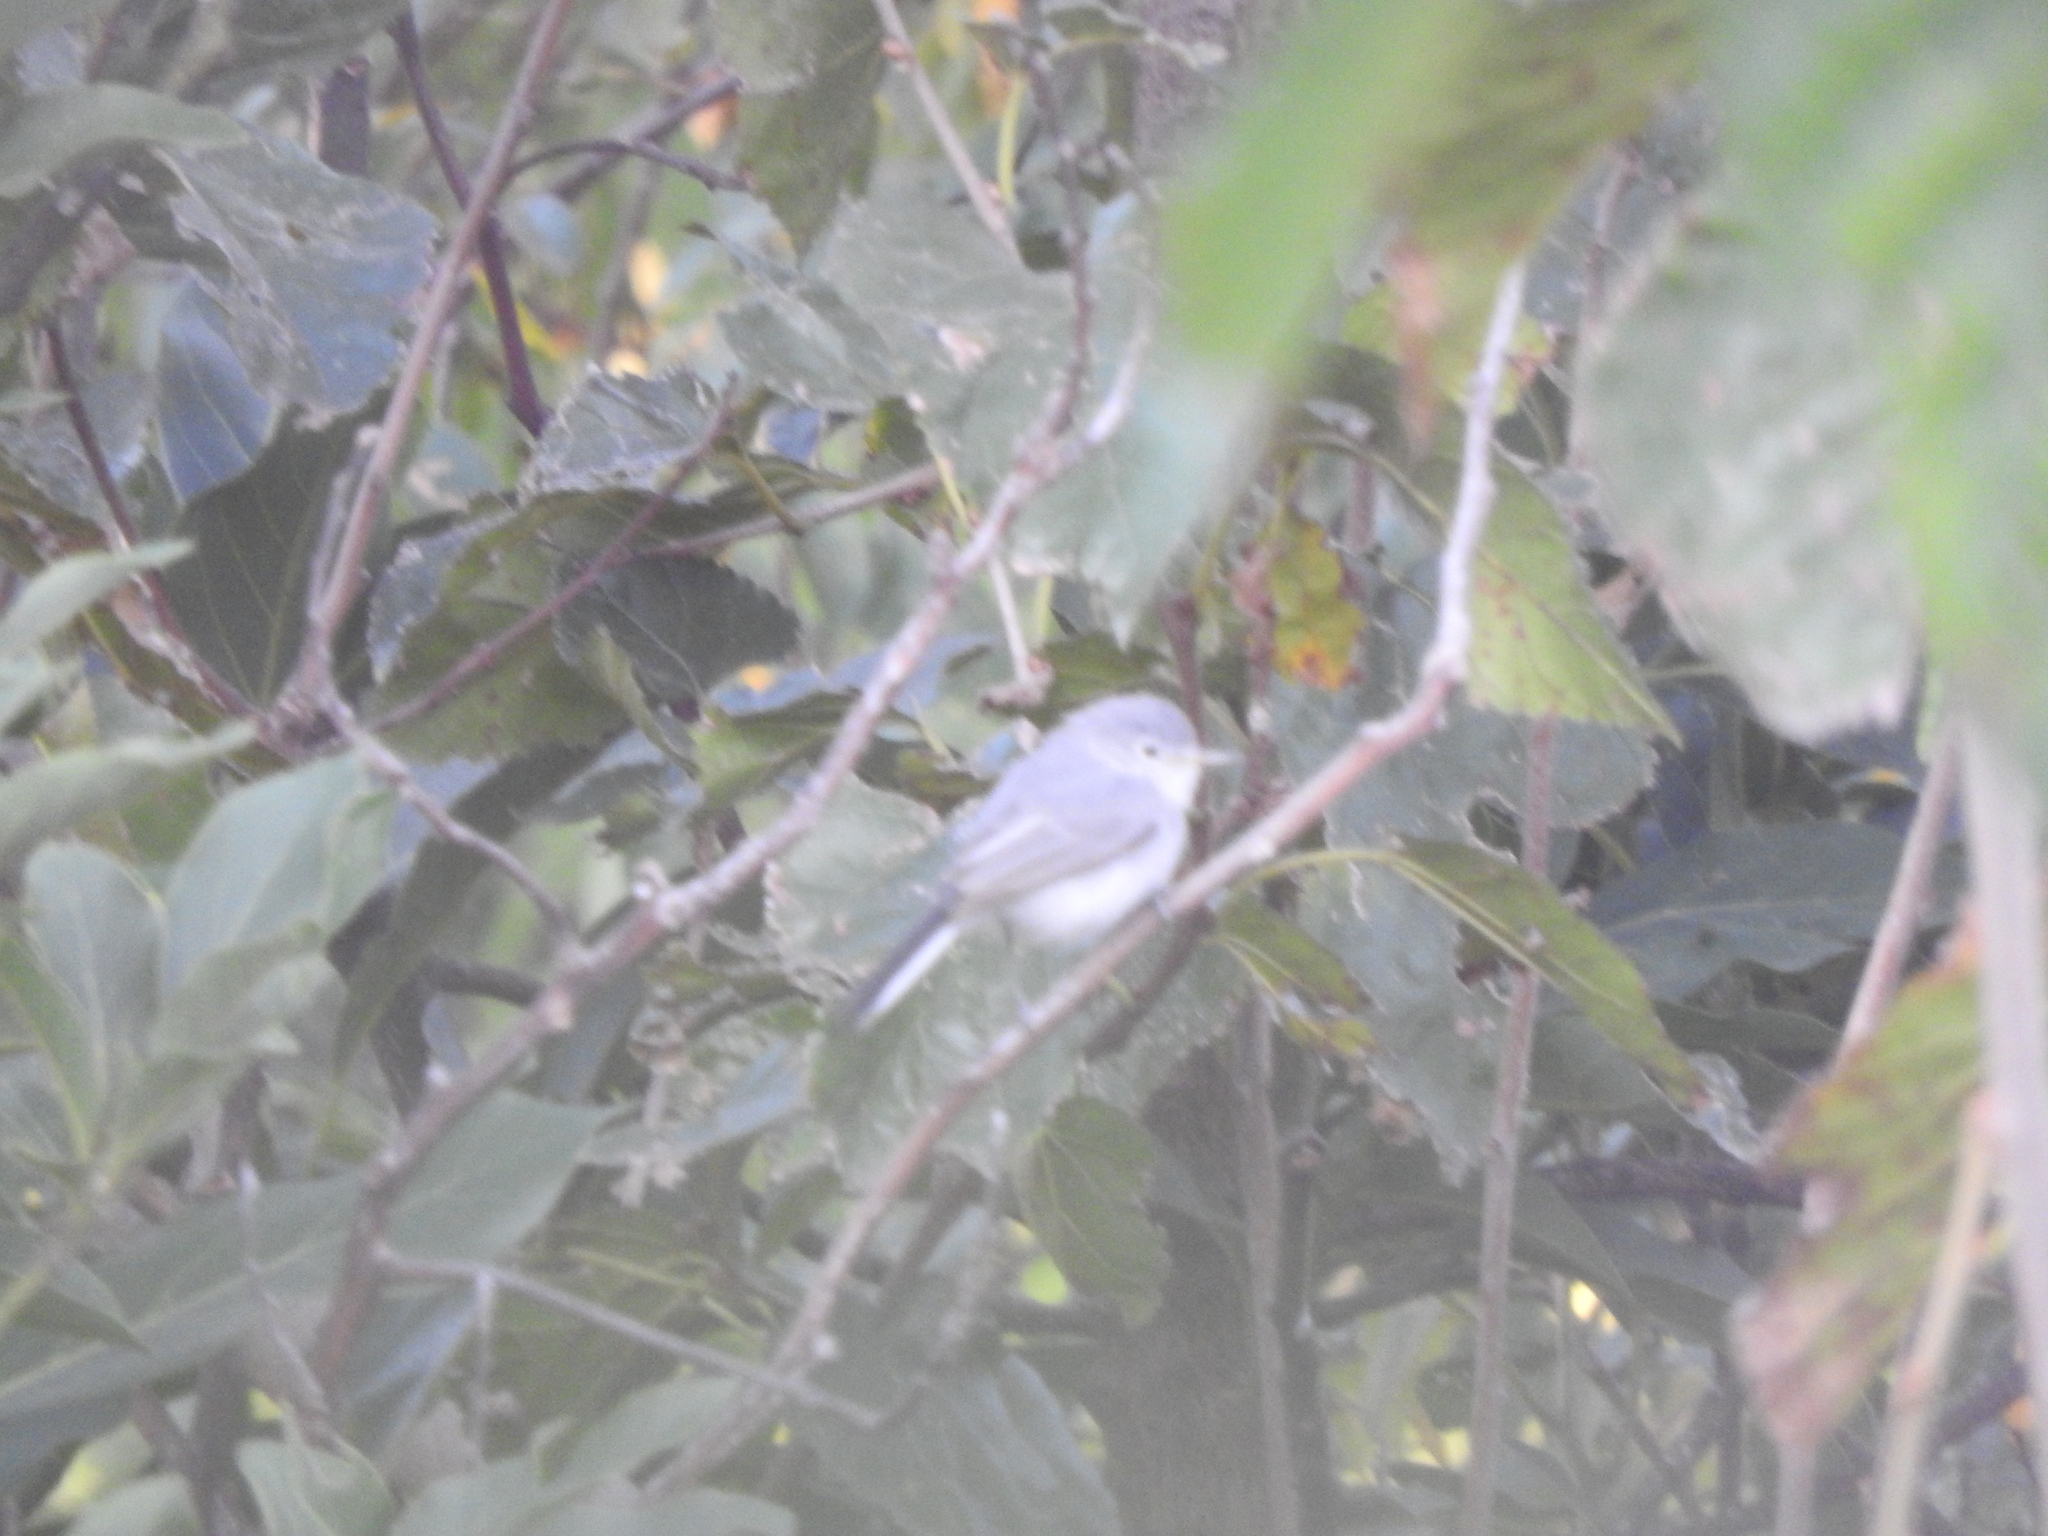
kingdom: Animalia
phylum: Chordata
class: Aves
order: Passeriformes
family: Polioptilidae
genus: Polioptila
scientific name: Polioptila caerulea
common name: Blue-gray gnatcatcher
